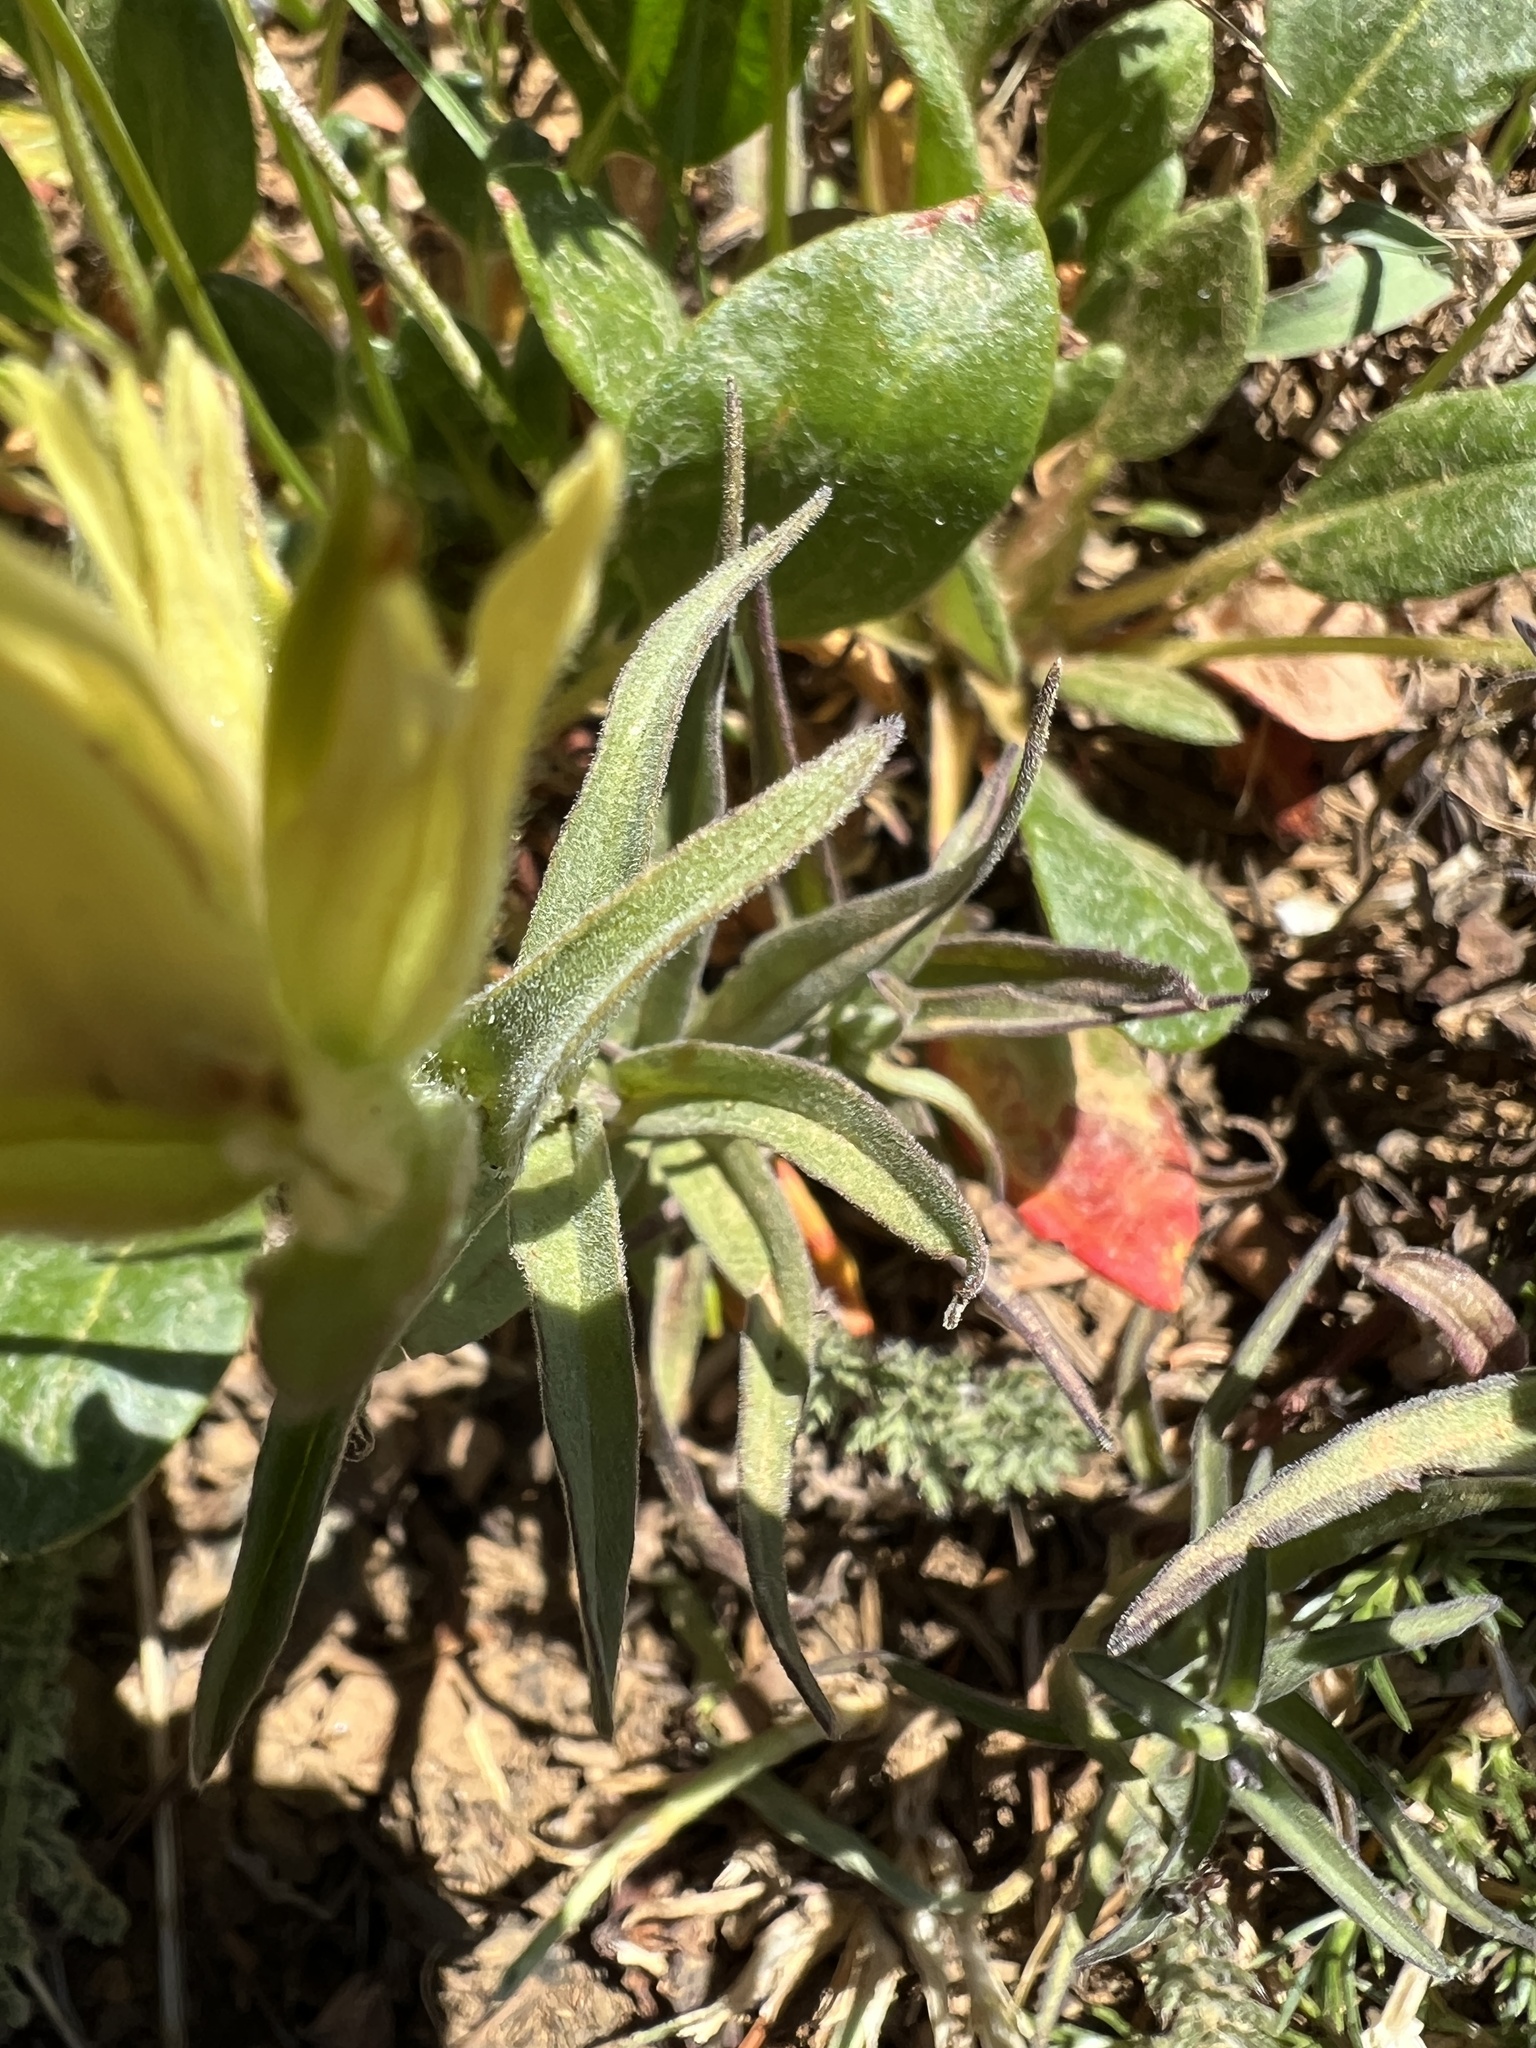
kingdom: Plantae
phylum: Tracheophyta
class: Magnoliopsida
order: Lamiales
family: Orobanchaceae
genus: Castilleja
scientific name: Castilleja elmeri
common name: Elmer's paintbrush
